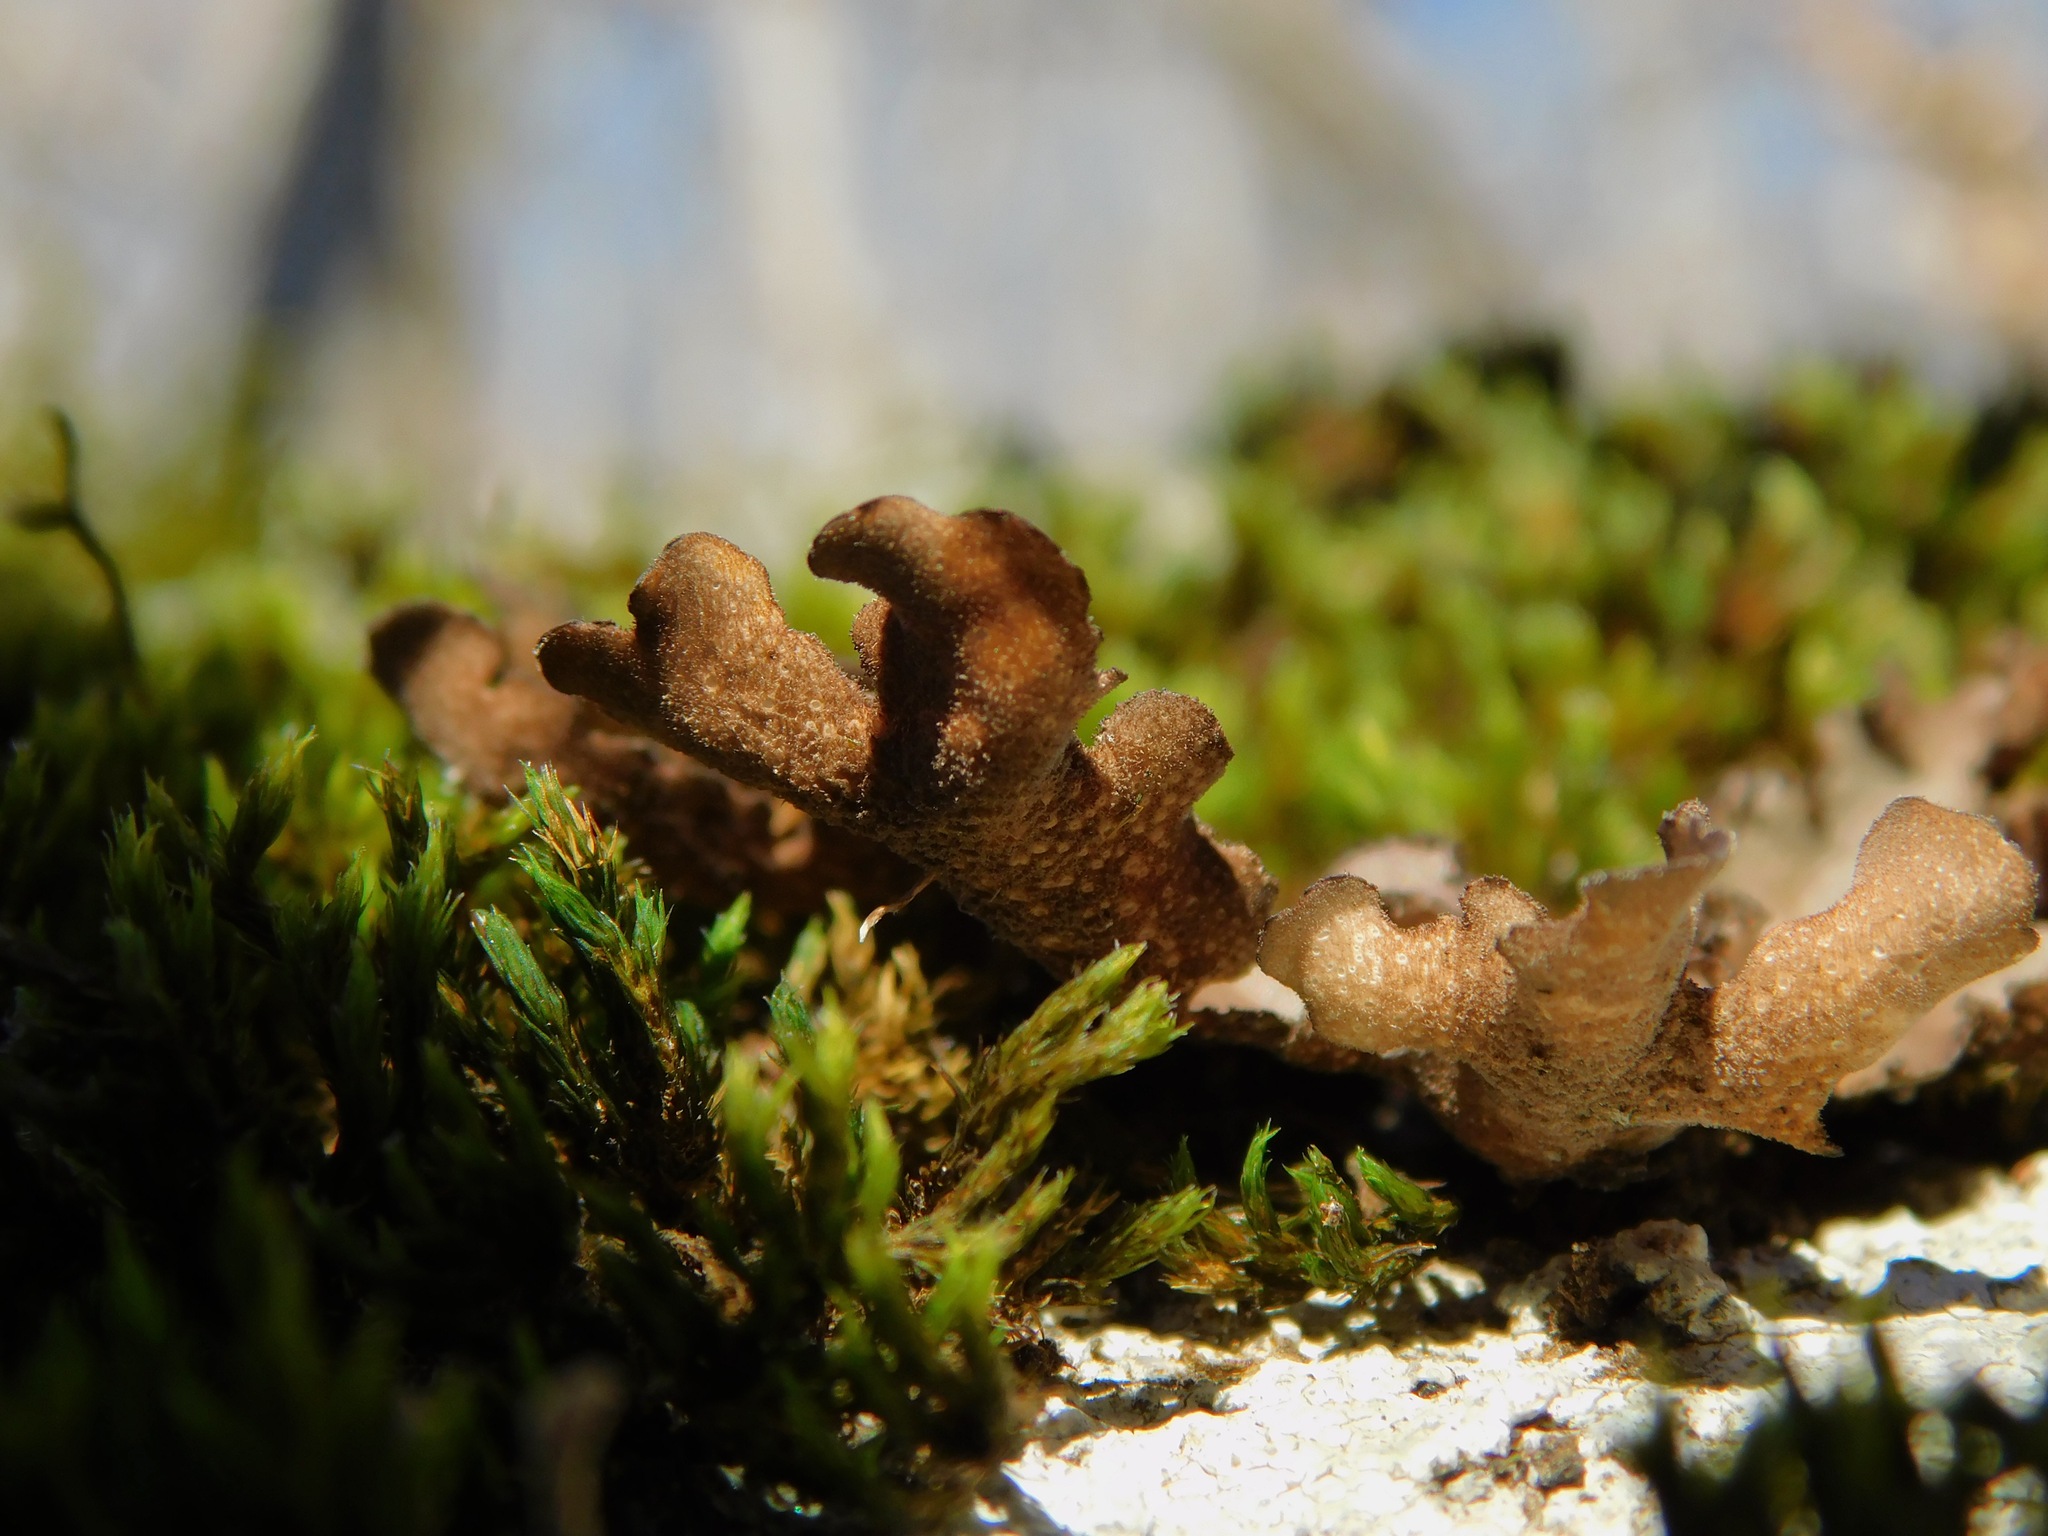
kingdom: Fungi
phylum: Ascomycota
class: Lecanoromycetes
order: Peltigerales
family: Lobariaceae
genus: Sticta
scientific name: Sticta beauvoisii
